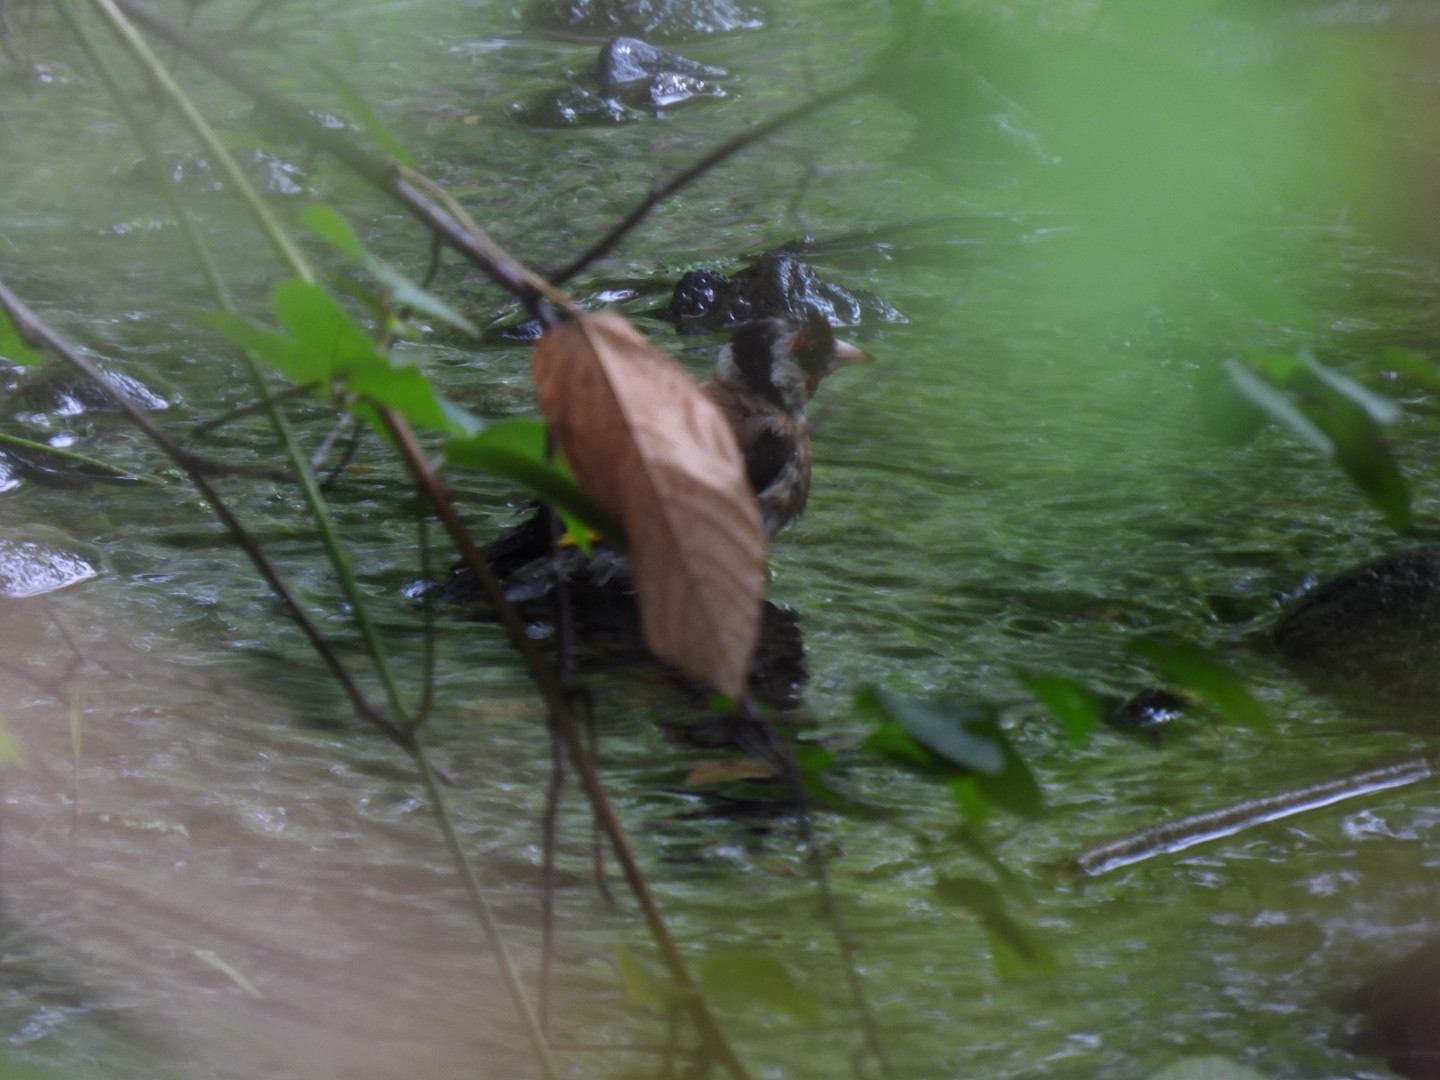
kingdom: Animalia
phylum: Chordata
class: Aves
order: Passeriformes
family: Fringillidae
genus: Carduelis
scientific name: Carduelis carduelis
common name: European goldfinch
